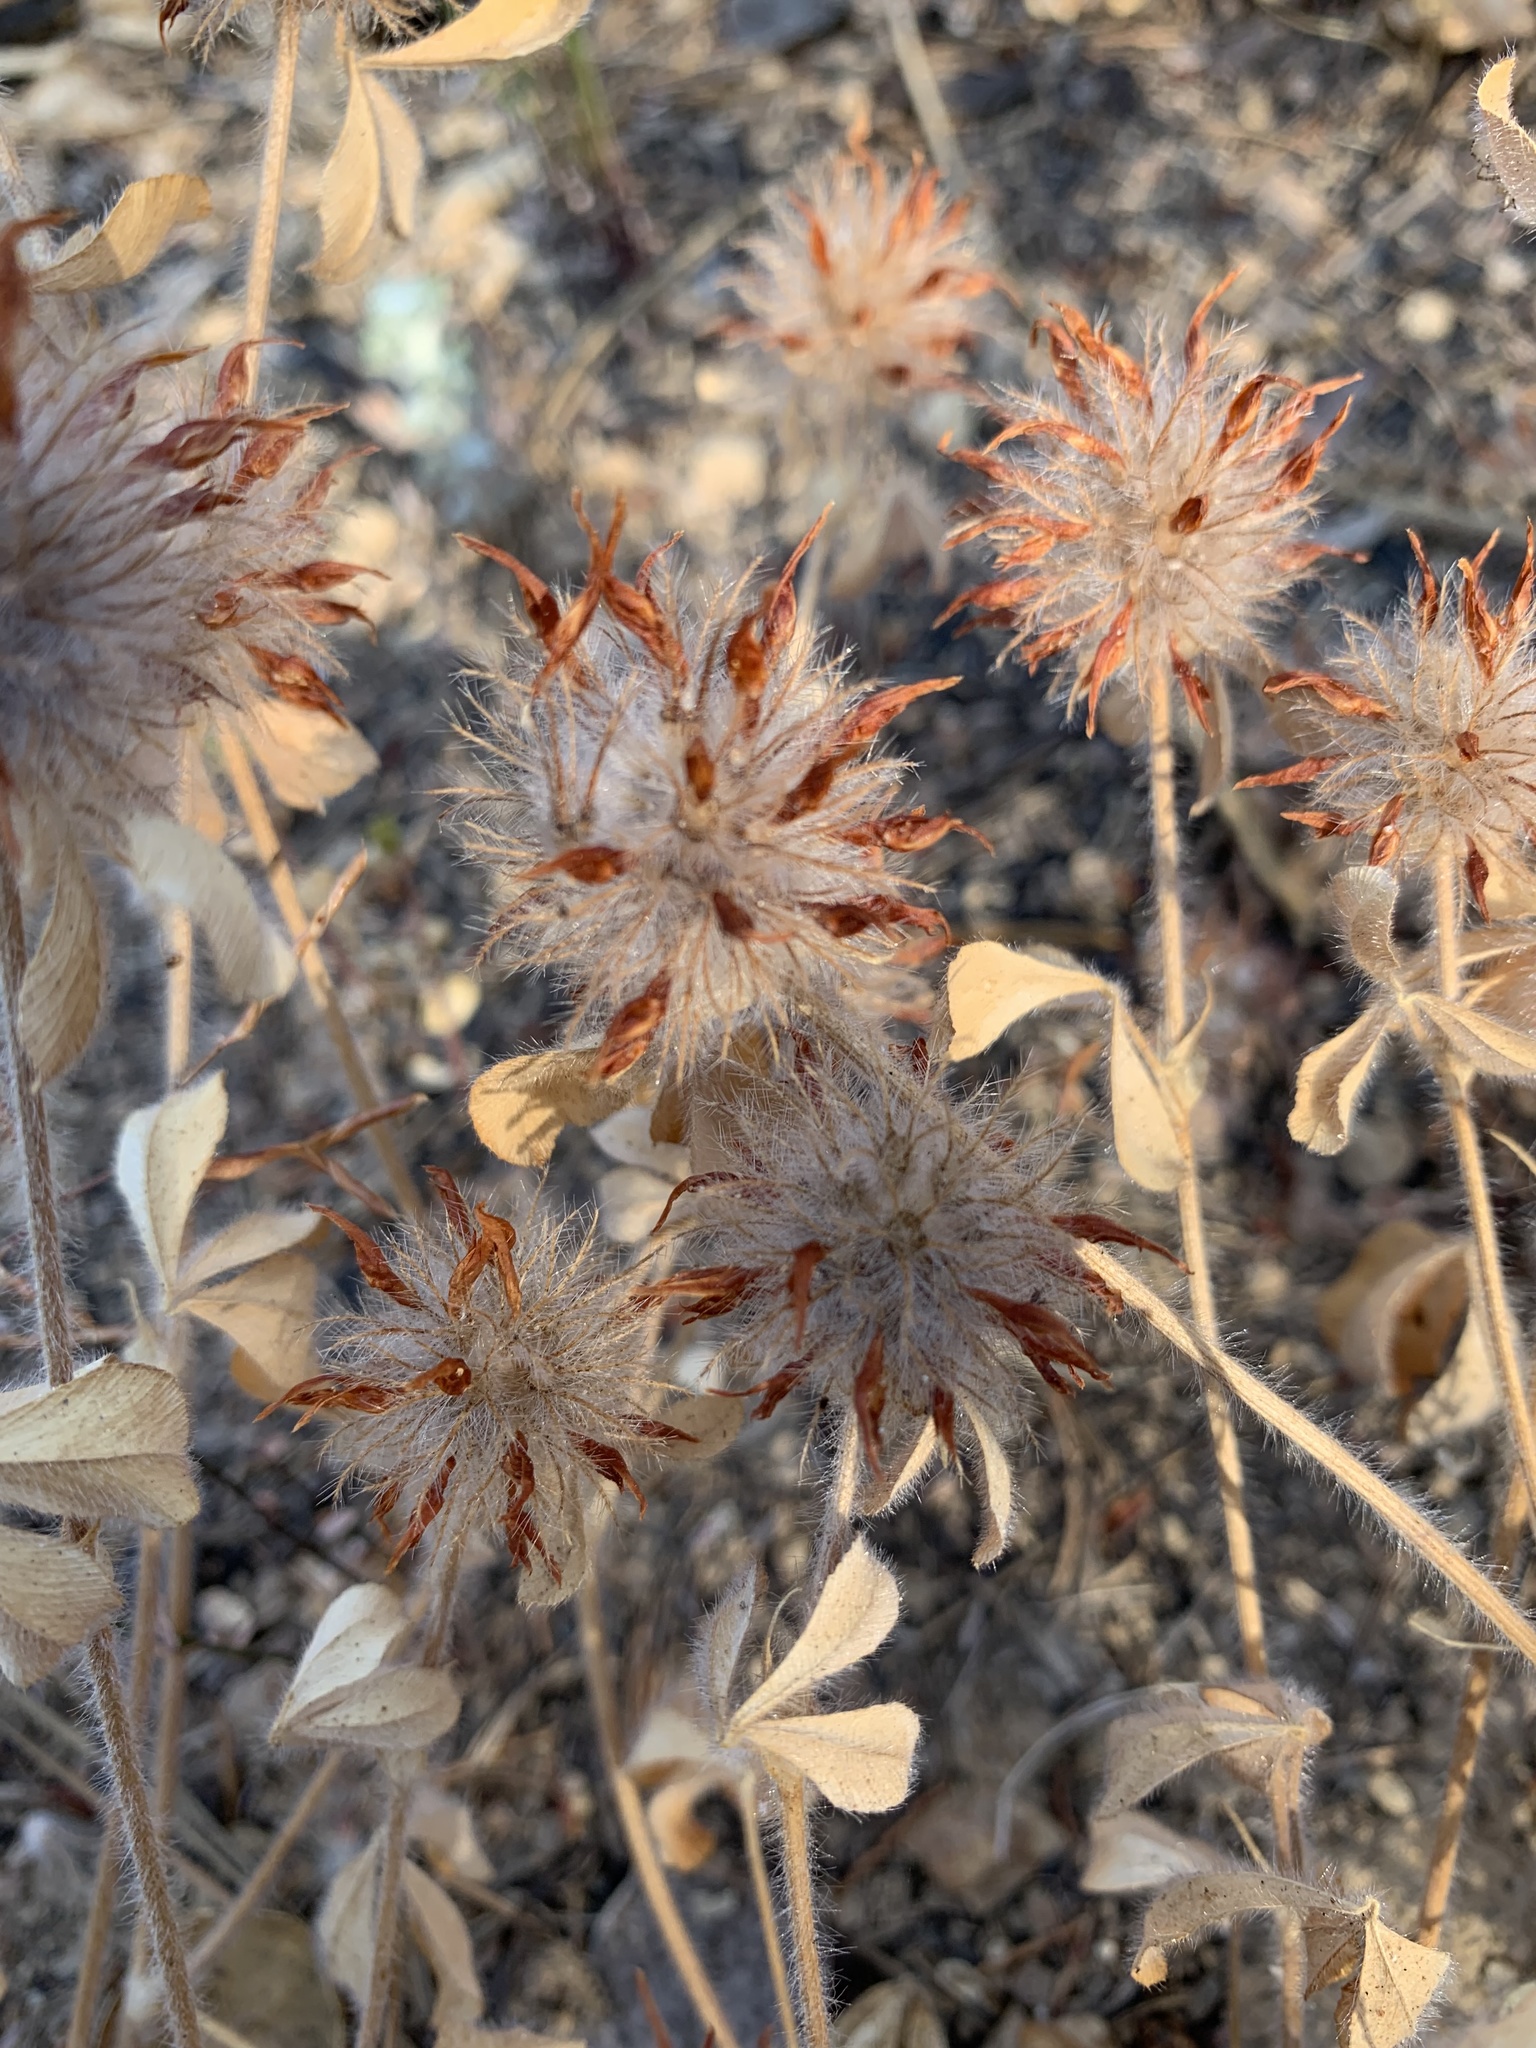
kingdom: Plantae
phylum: Tracheophyta
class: Magnoliopsida
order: Fabales
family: Fabaceae
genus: Trifolium
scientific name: Trifolium hirtum
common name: Rose clover
